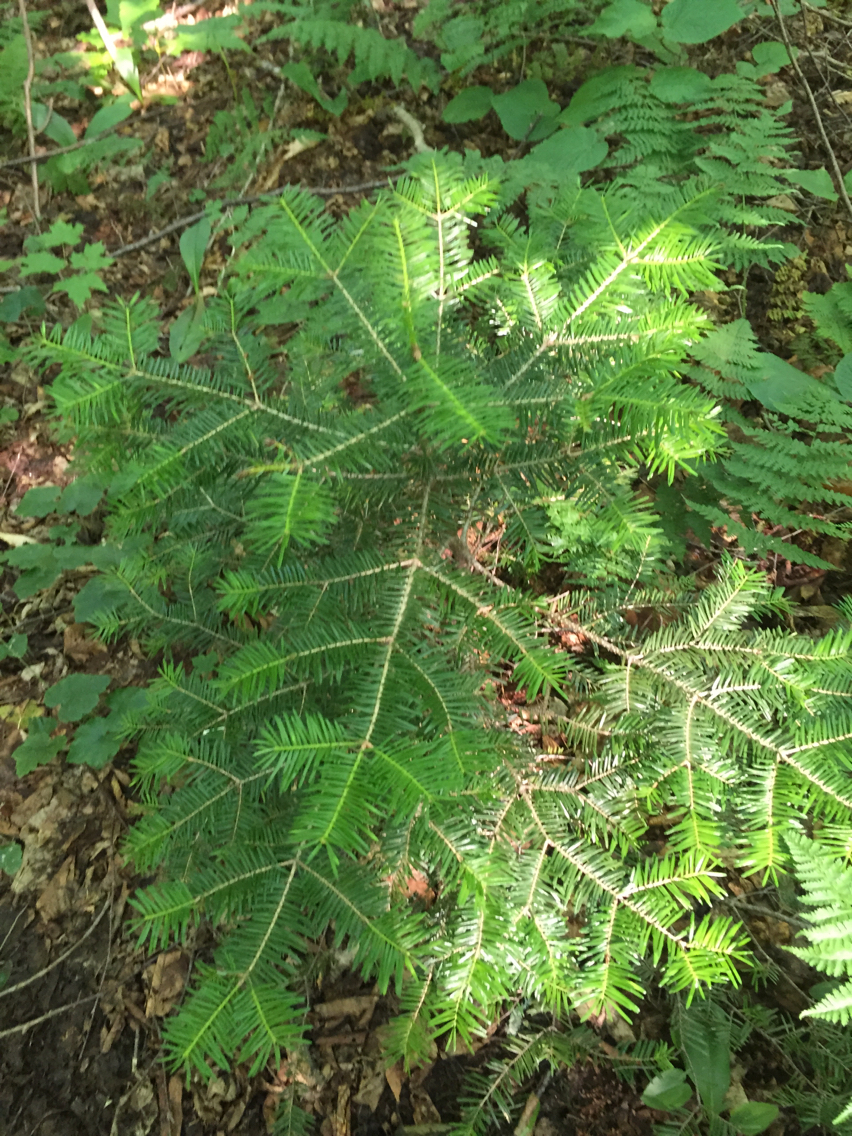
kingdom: Plantae
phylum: Tracheophyta
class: Pinopsida
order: Pinales
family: Pinaceae
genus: Abies
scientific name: Abies balsamea
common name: Balsam fir
